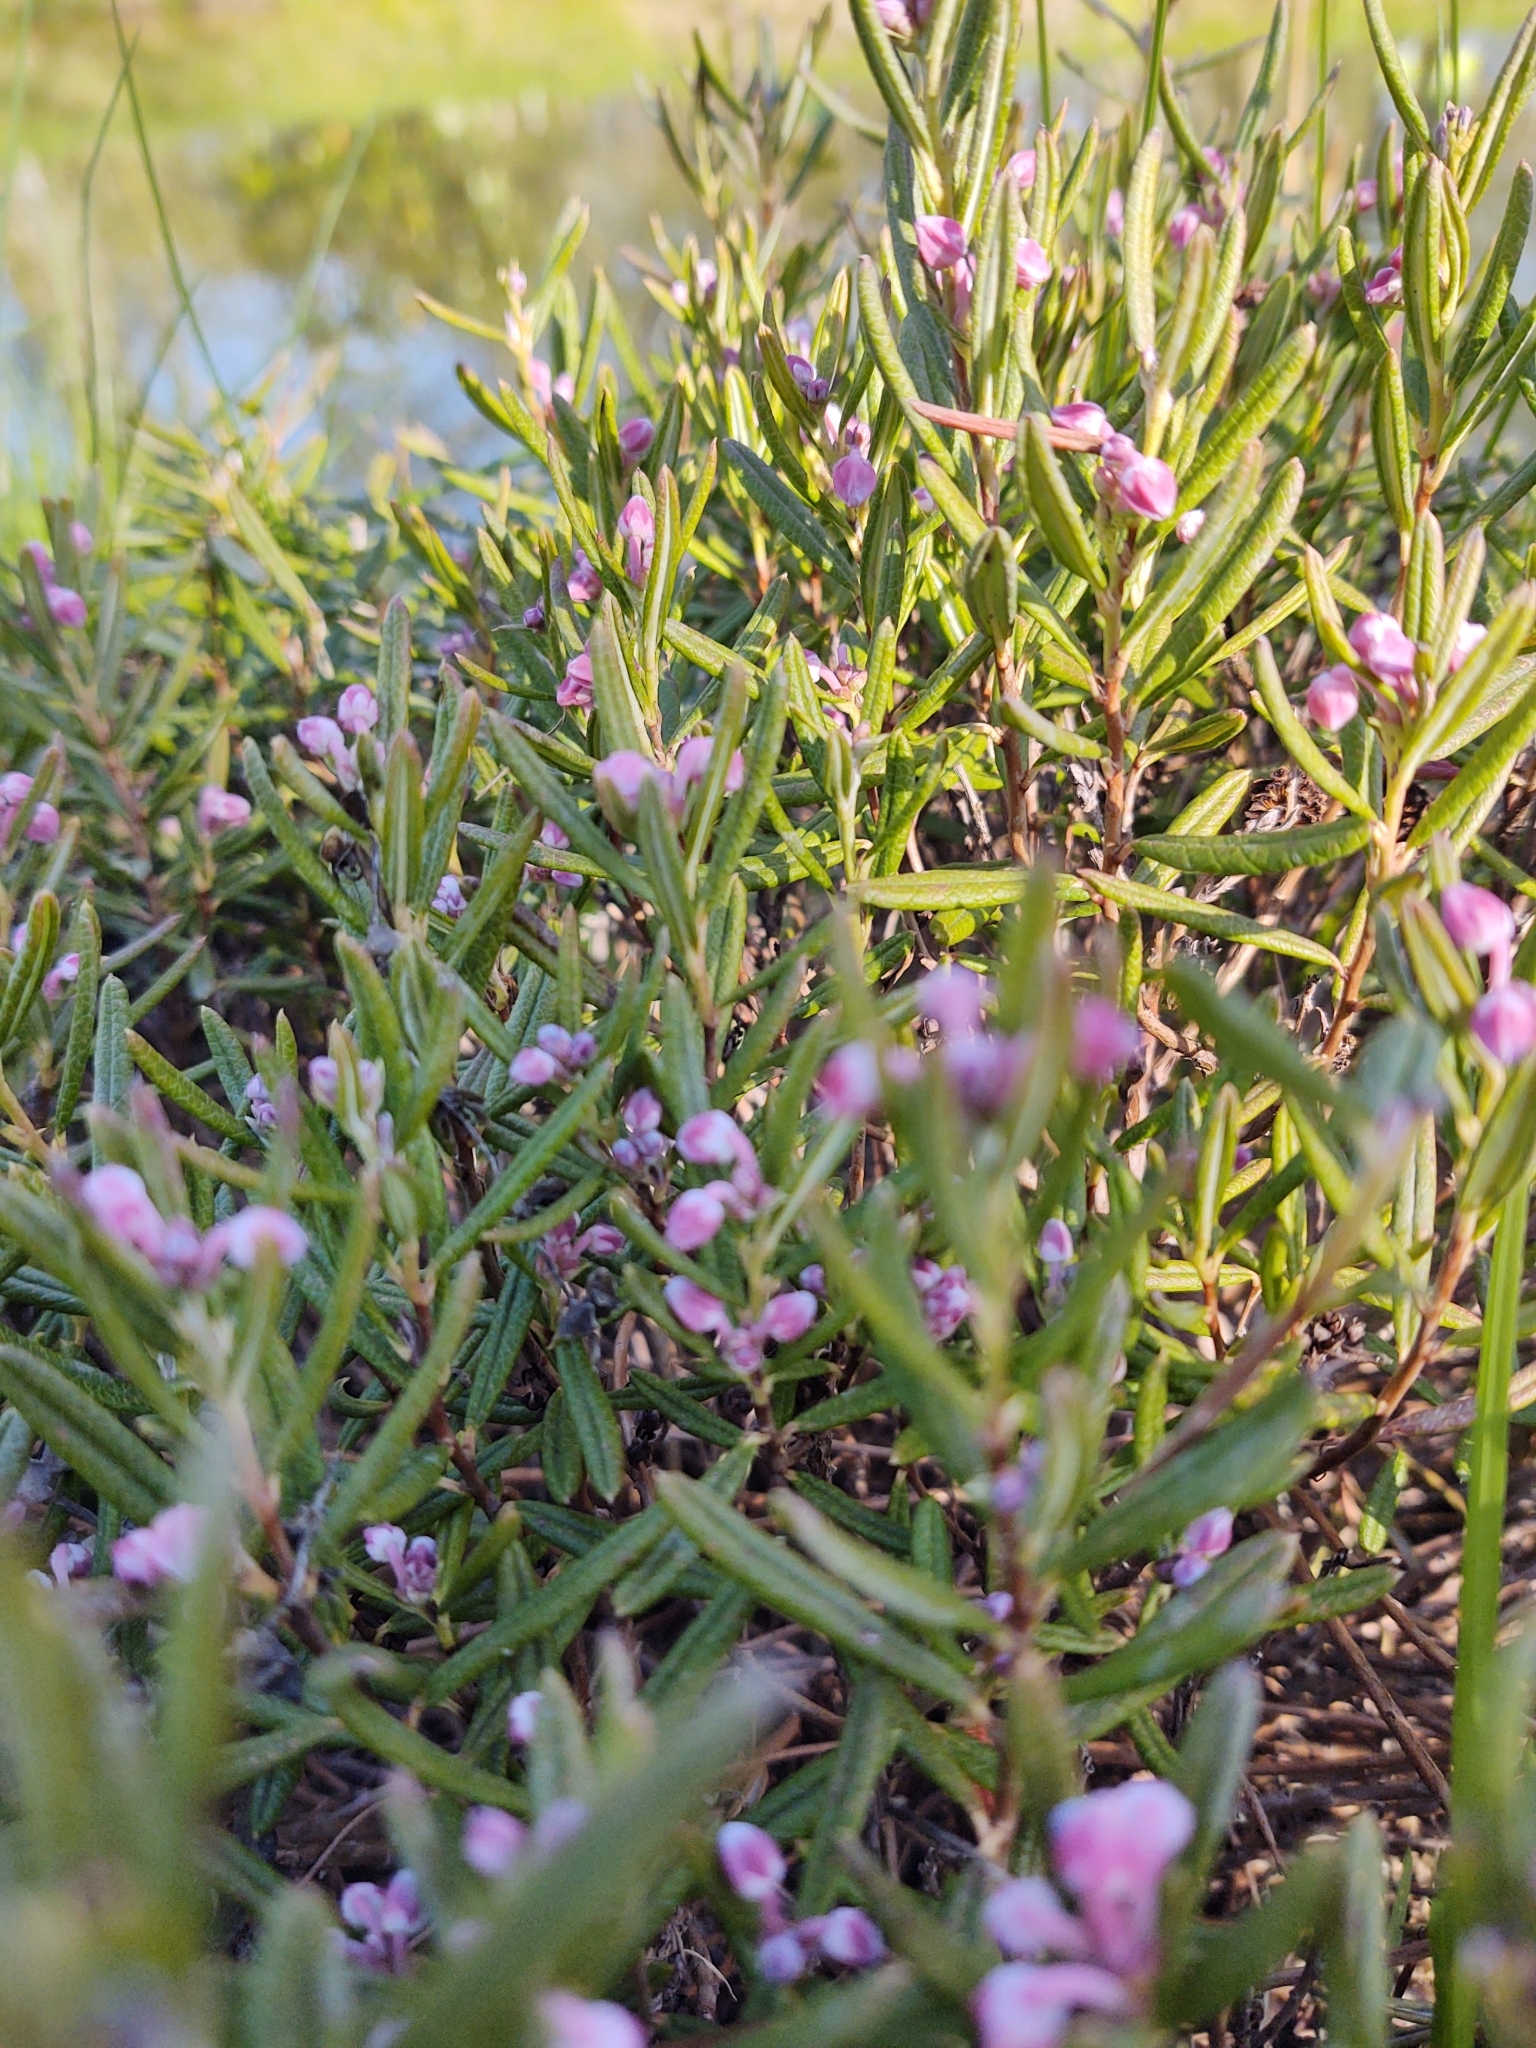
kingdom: Plantae
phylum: Tracheophyta
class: Magnoliopsida
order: Ericales
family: Ericaceae
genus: Andromeda
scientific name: Andromeda polifolia
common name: Bog-rosemary
